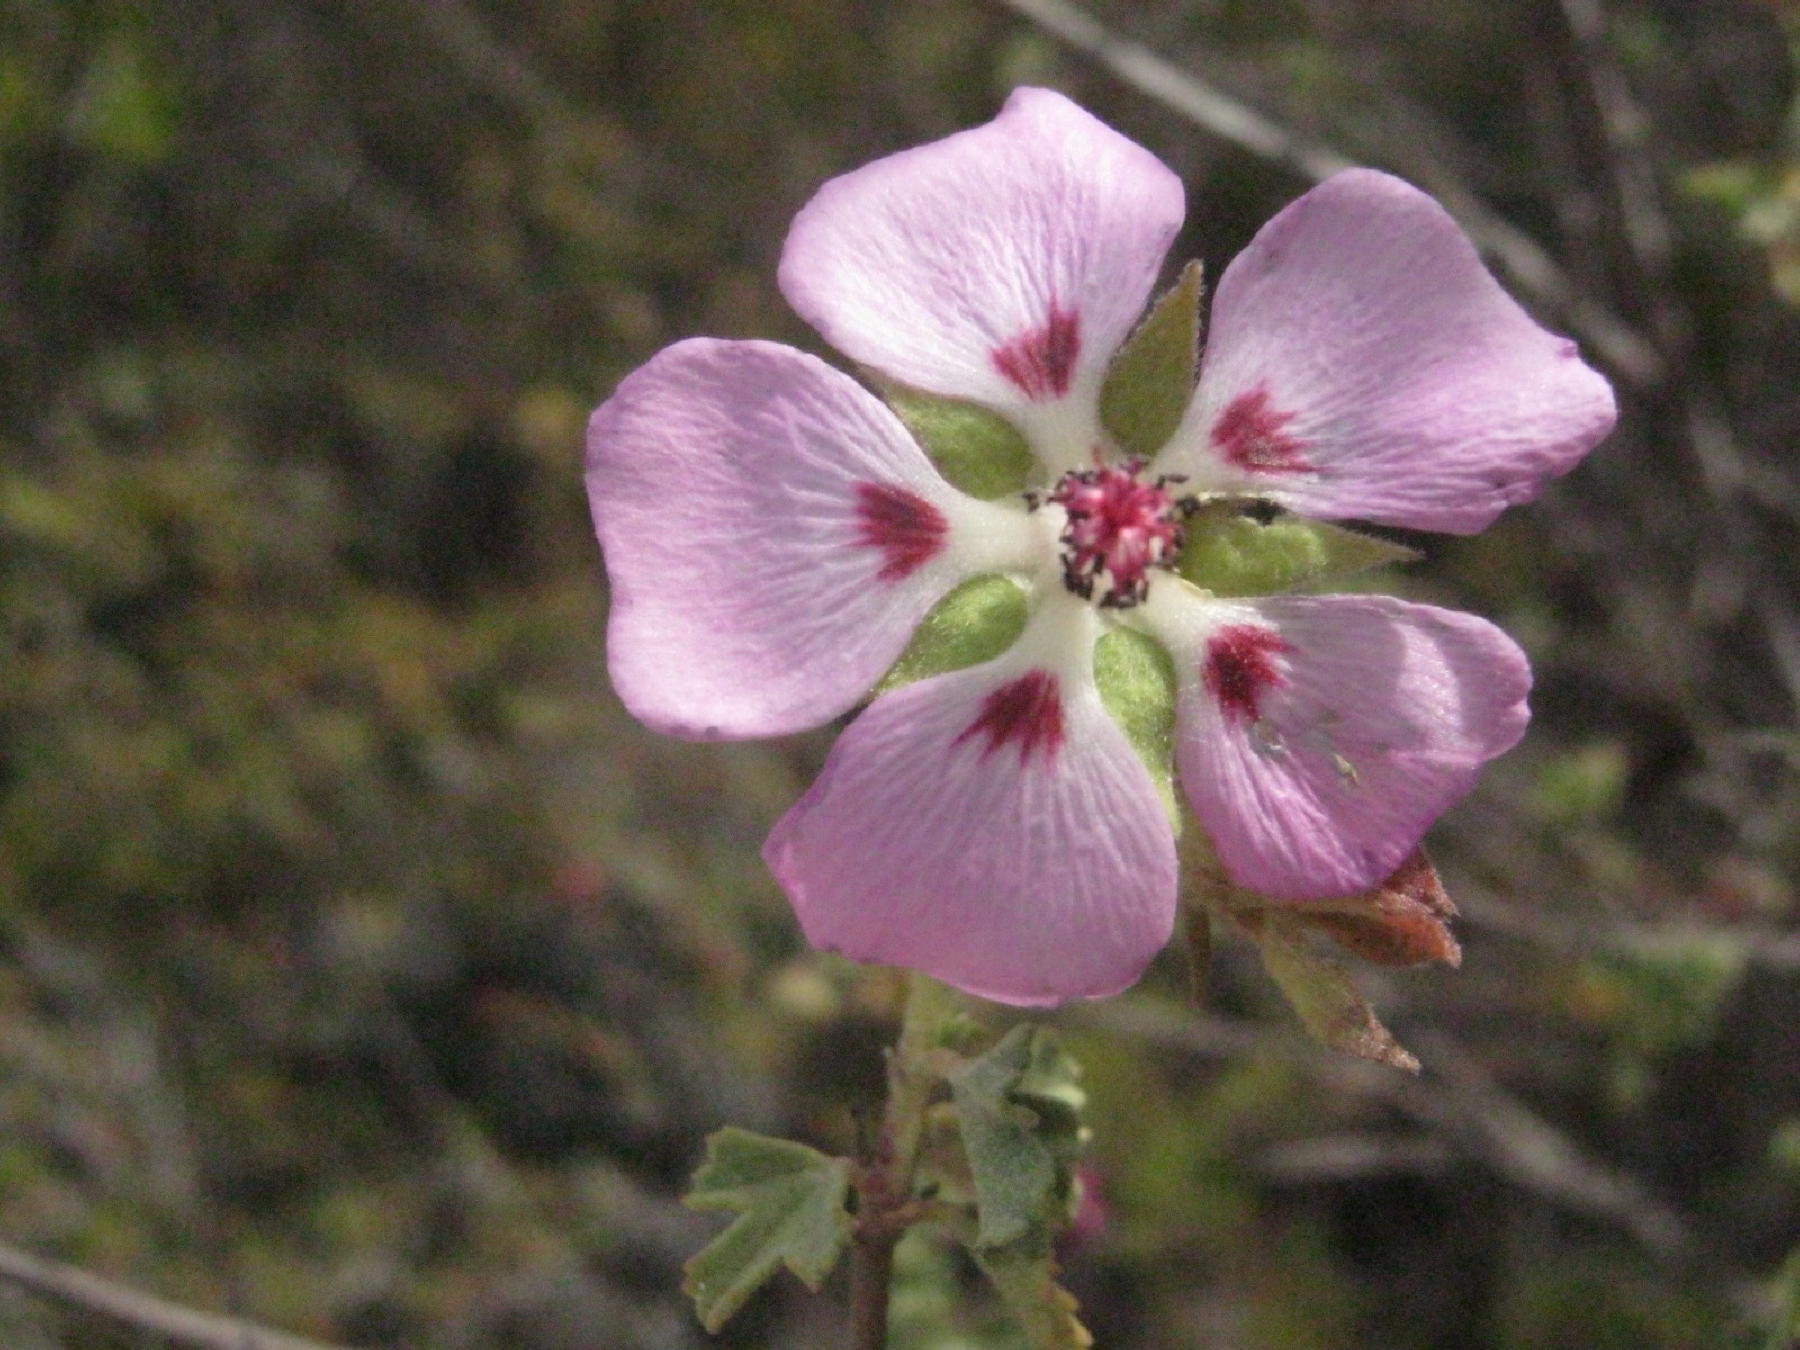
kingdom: Plantae
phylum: Tracheophyta
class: Magnoliopsida
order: Malvales
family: Malvaceae
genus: Anisodontea
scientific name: Anisodontea scabrosa
